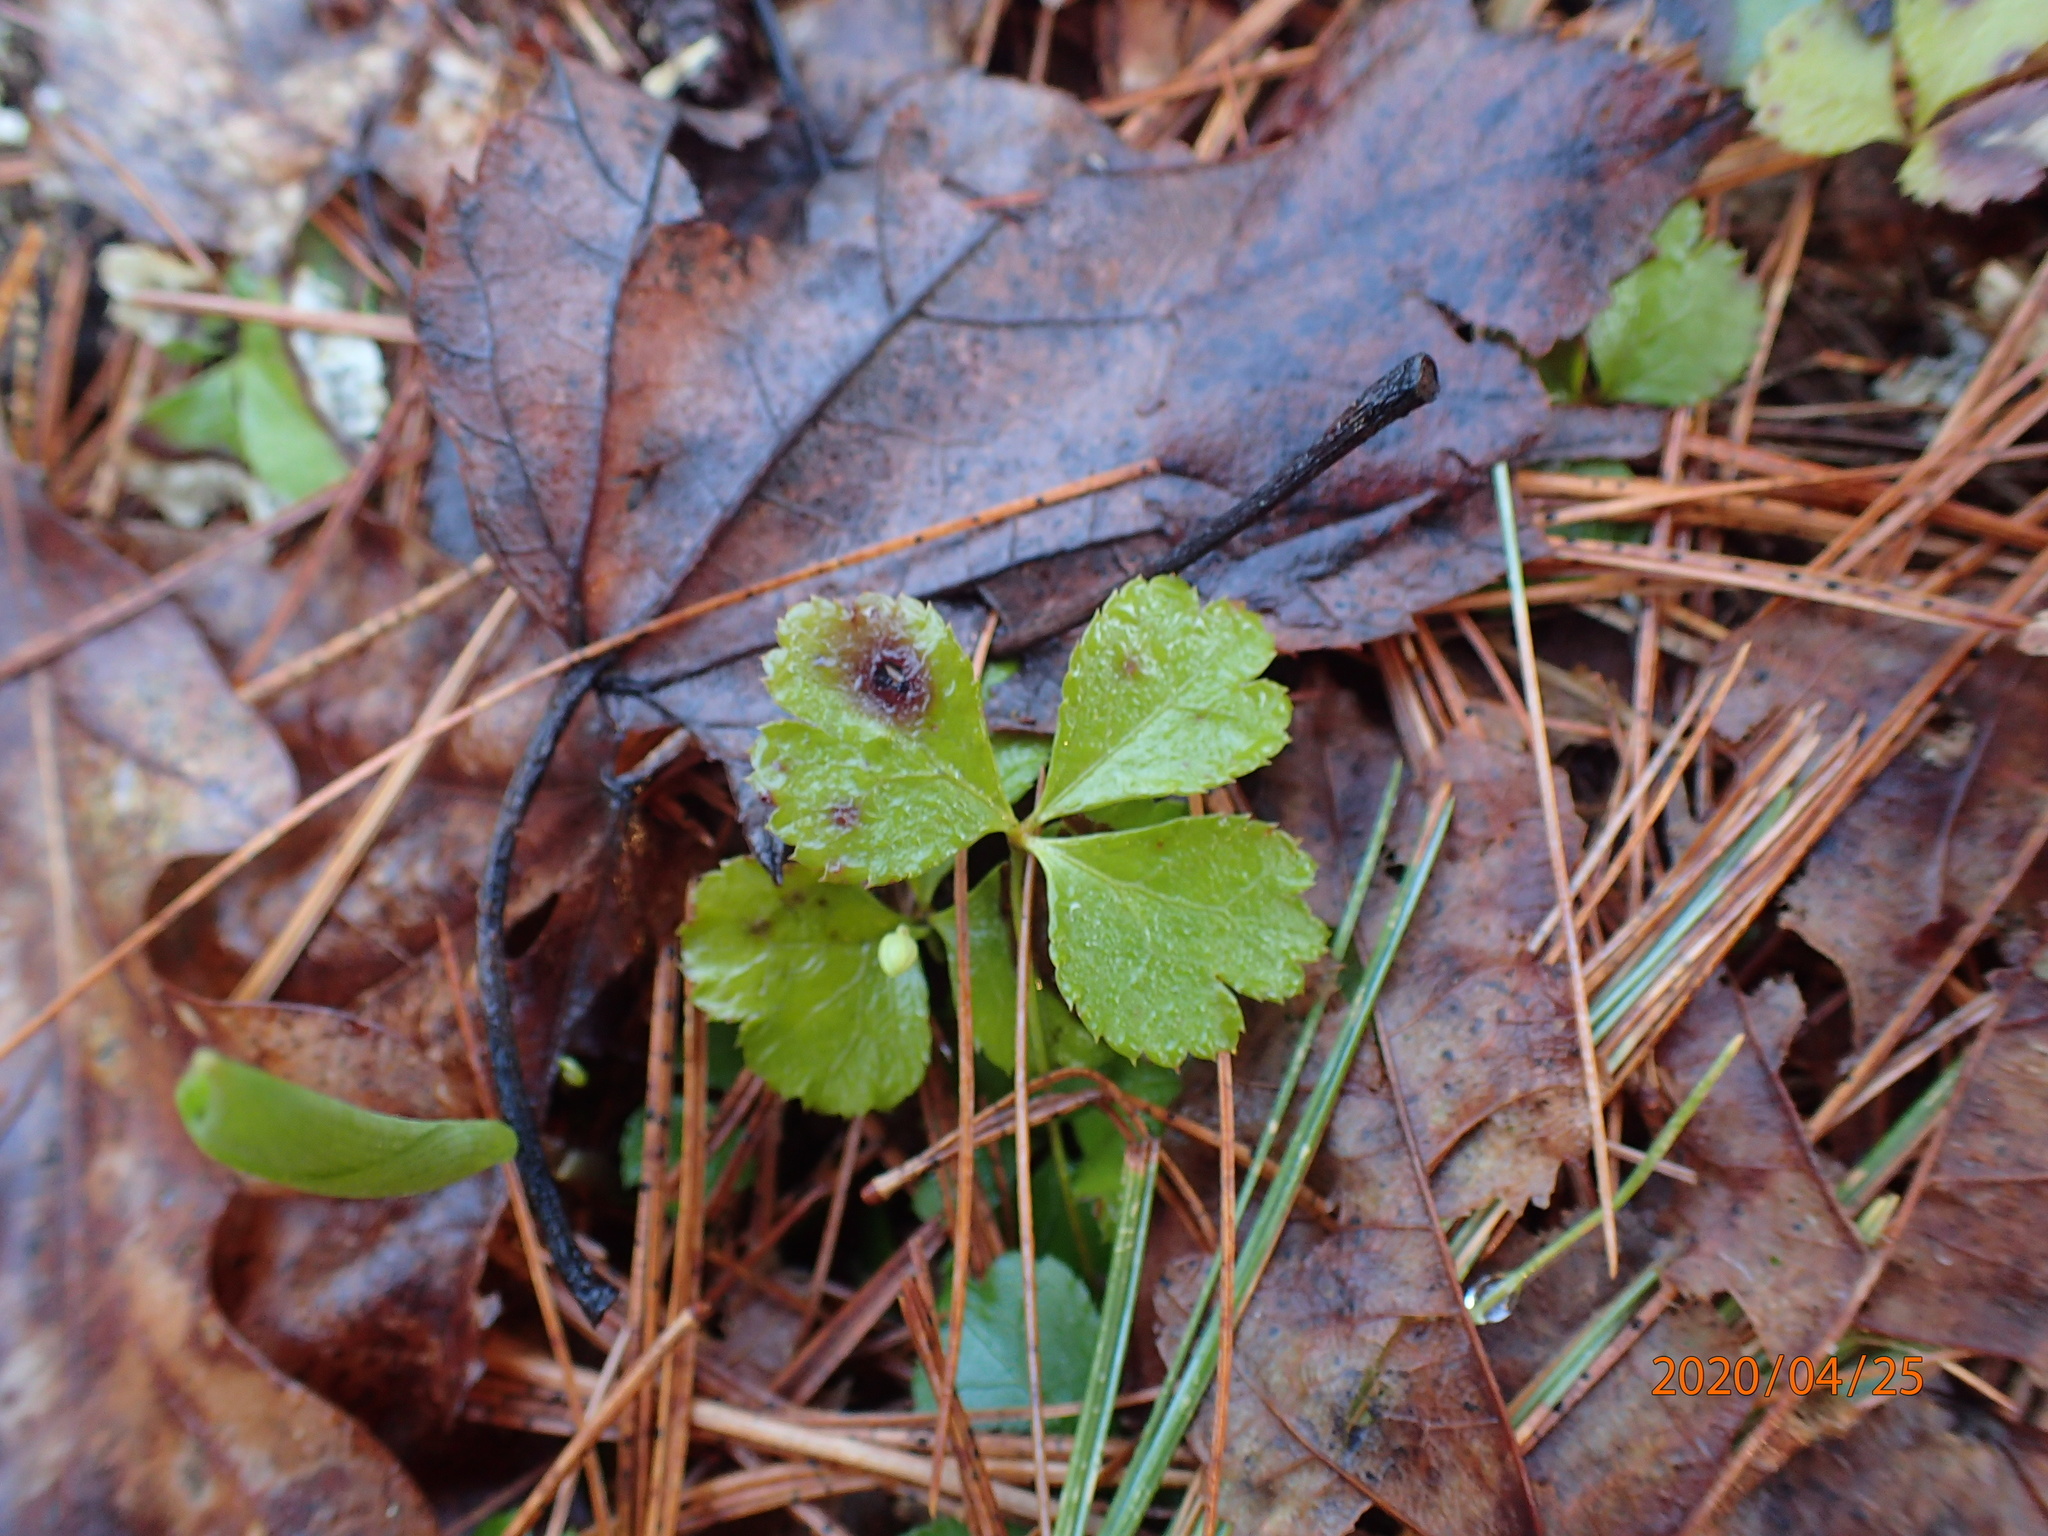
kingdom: Plantae
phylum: Tracheophyta
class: Magnoliopsida
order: Ranunculales
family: Ranunculaceae
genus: Coptis
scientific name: Coptis trifolia
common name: Canker-root
